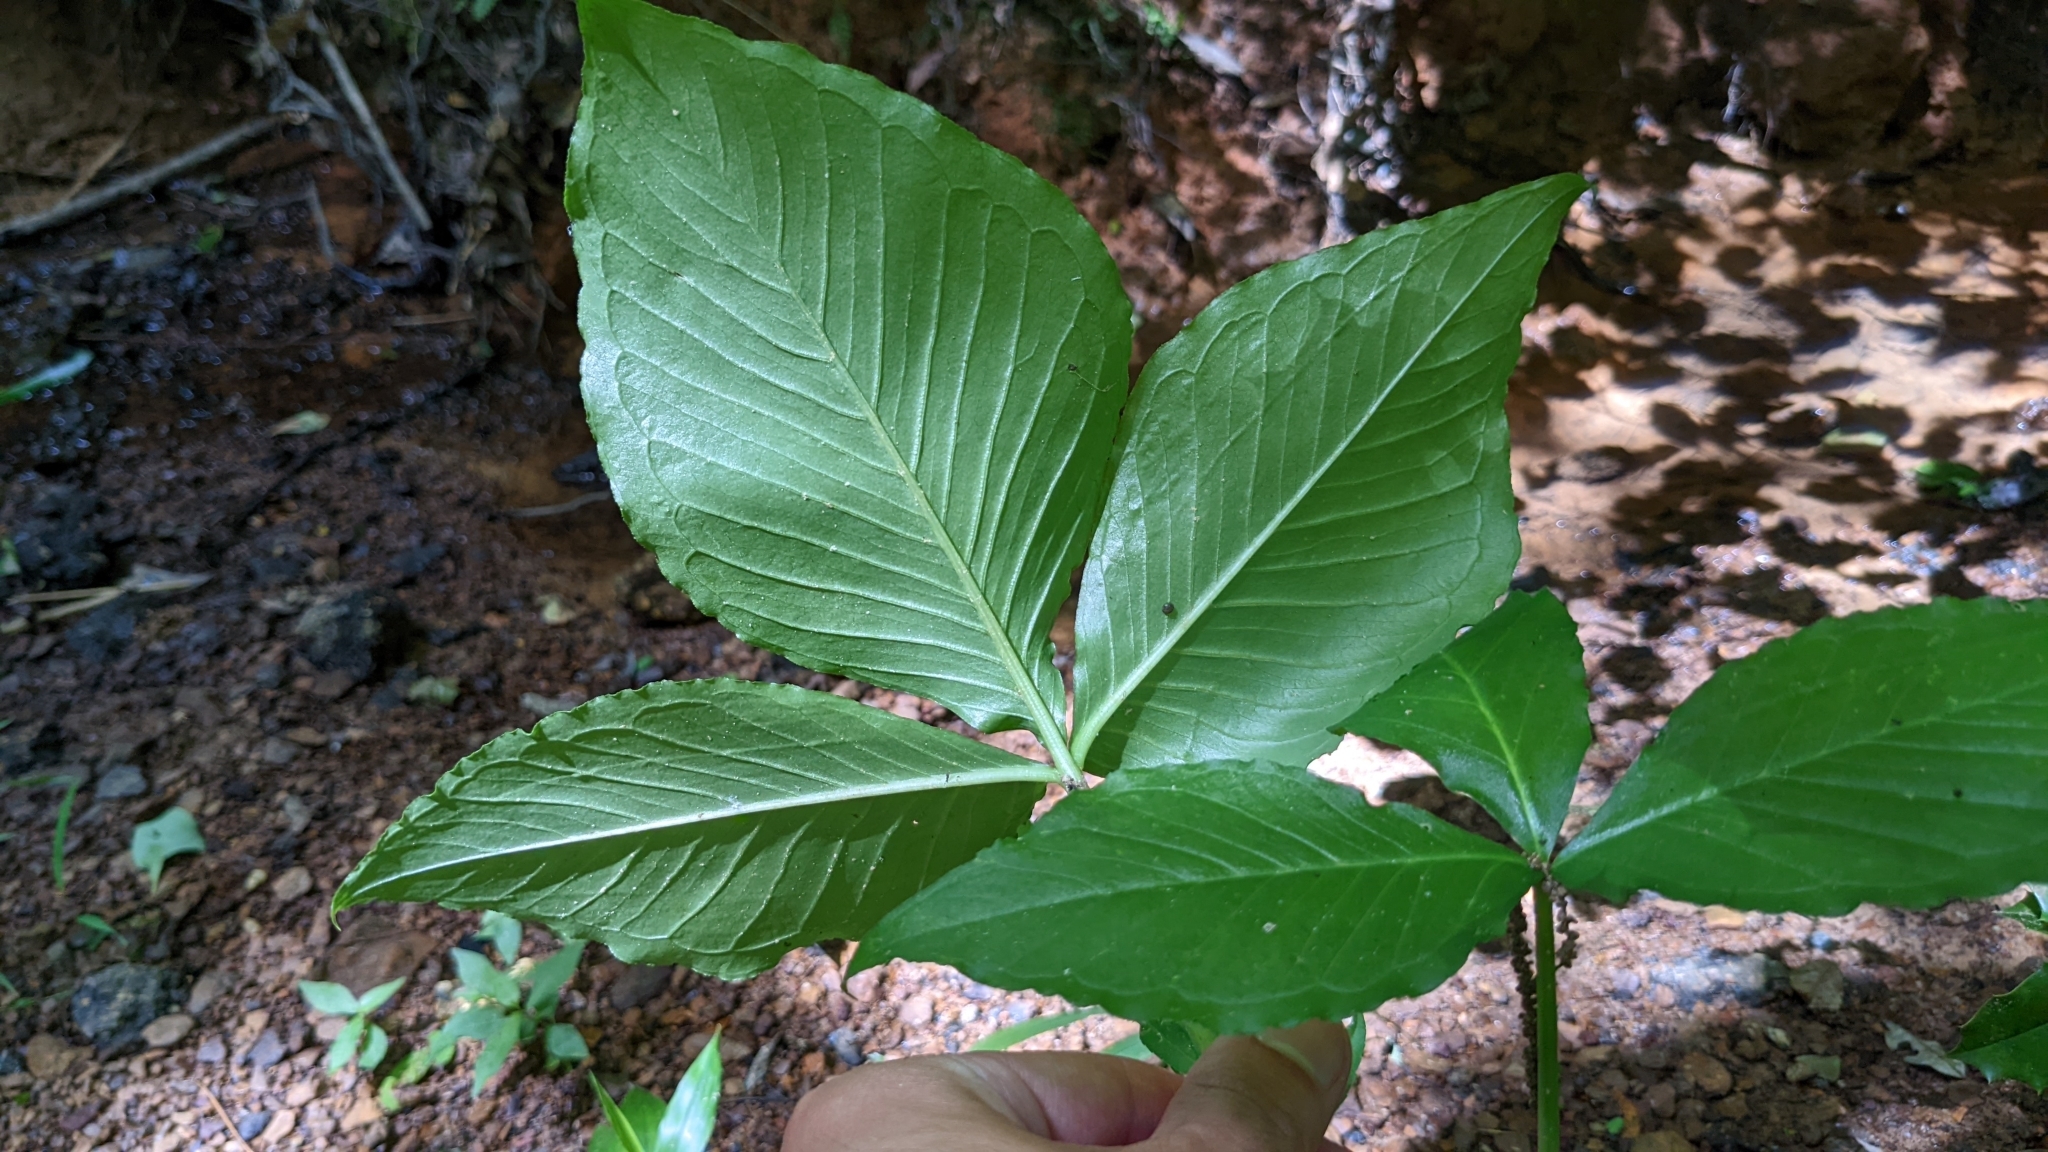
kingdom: Plantae
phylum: Tracheophyta
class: Liliopsida
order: Alismatales
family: Araceae
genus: Arisaema
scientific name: Arisaema triphyllum
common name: Jack-in-the-pulpit
